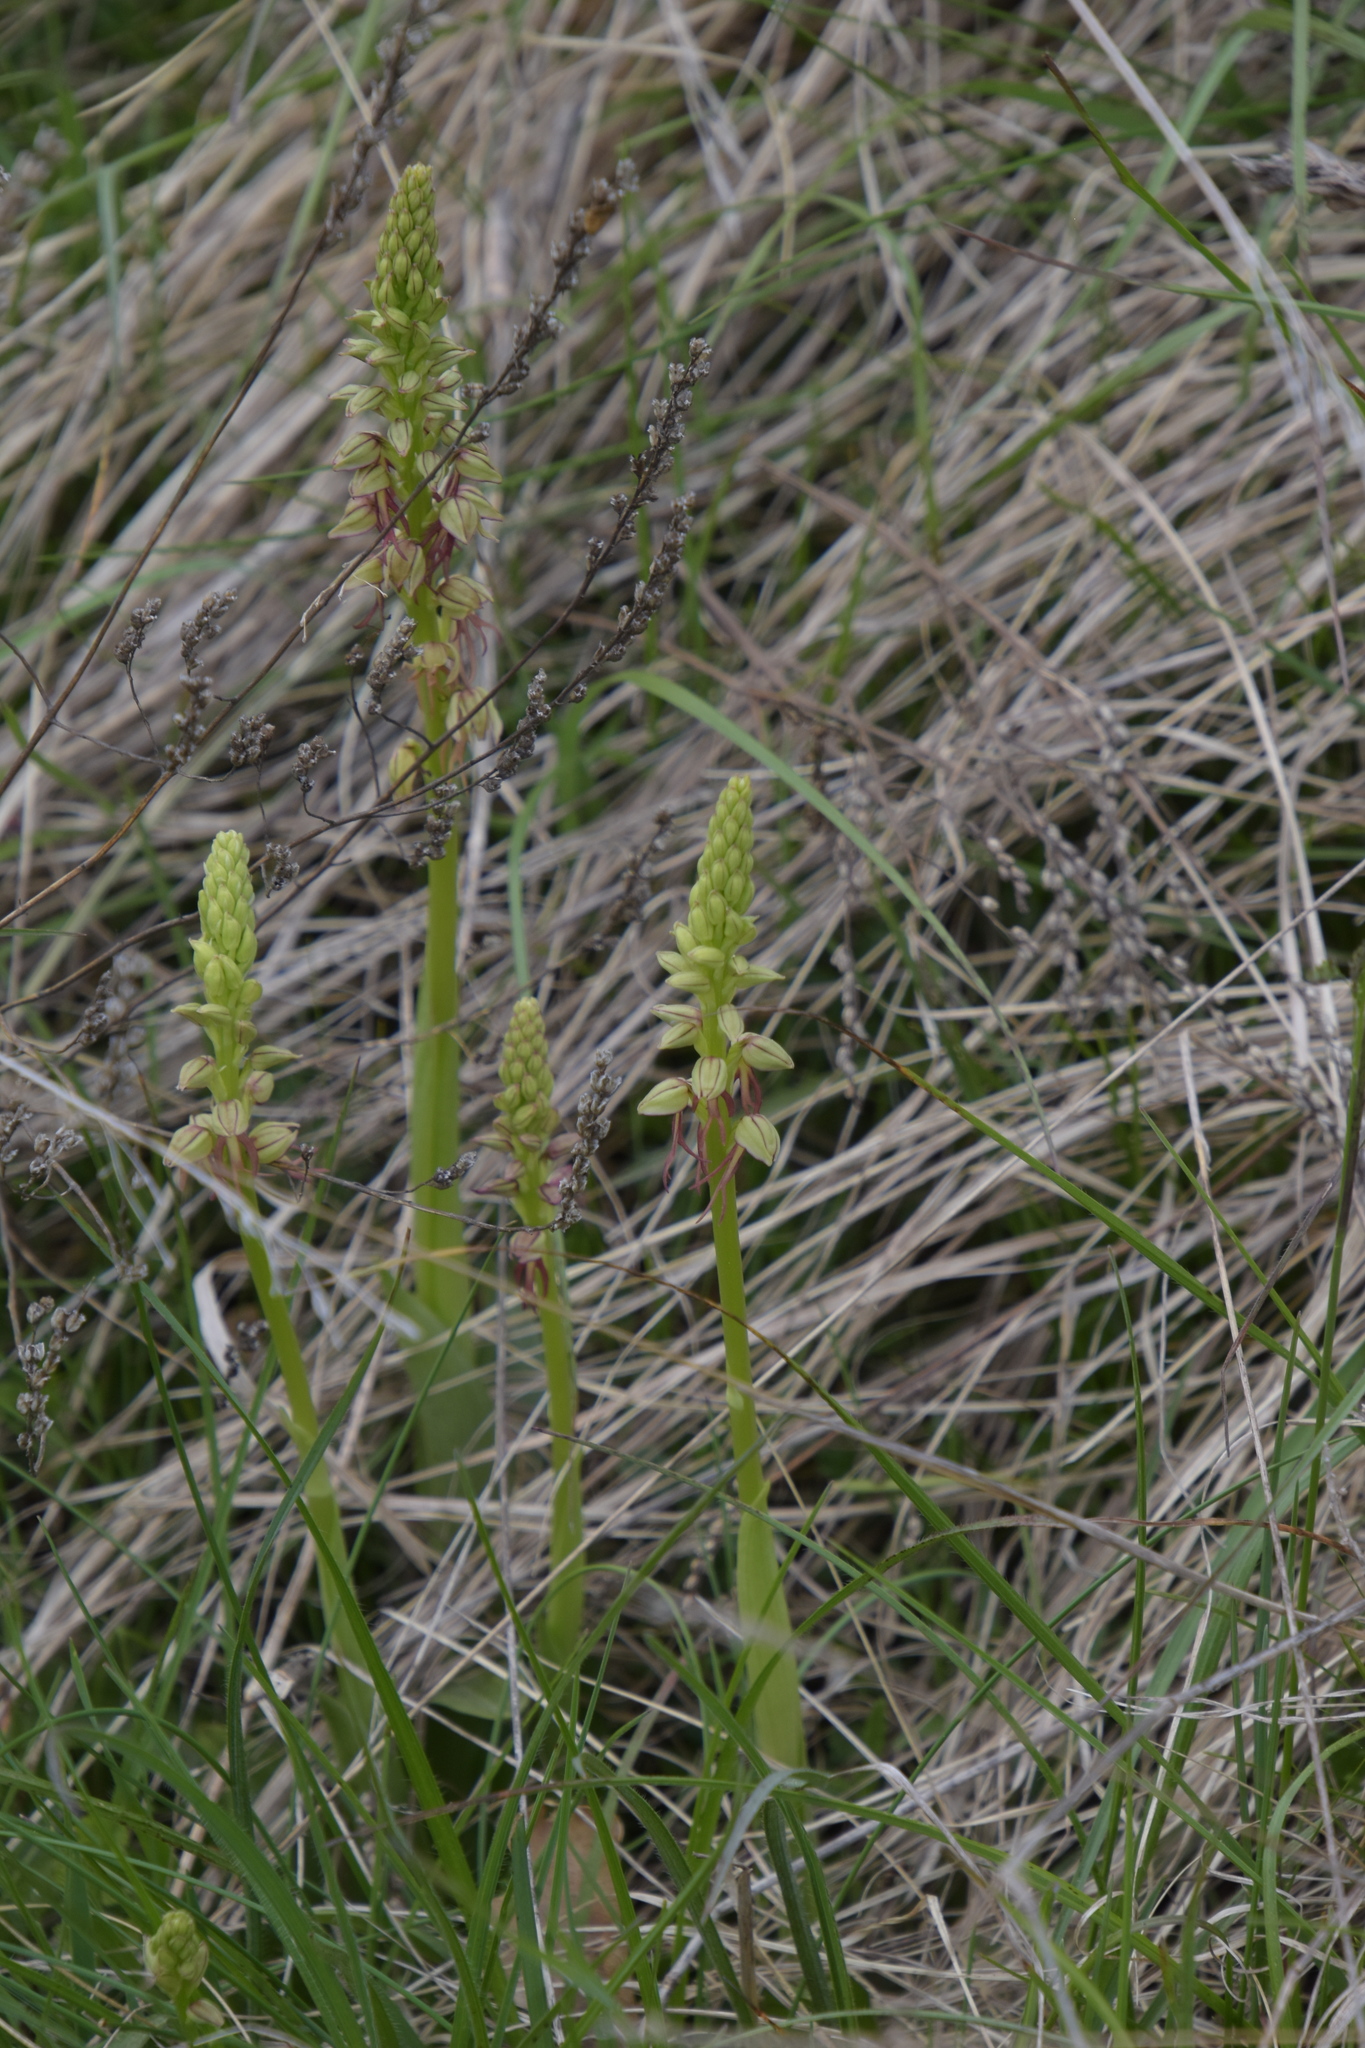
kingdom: Plantae
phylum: Tracheophyta
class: Liliopsida
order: Asparagales
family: Orchidaceae
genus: Orchis
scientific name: Orchis anthropophora
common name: Man orchid
